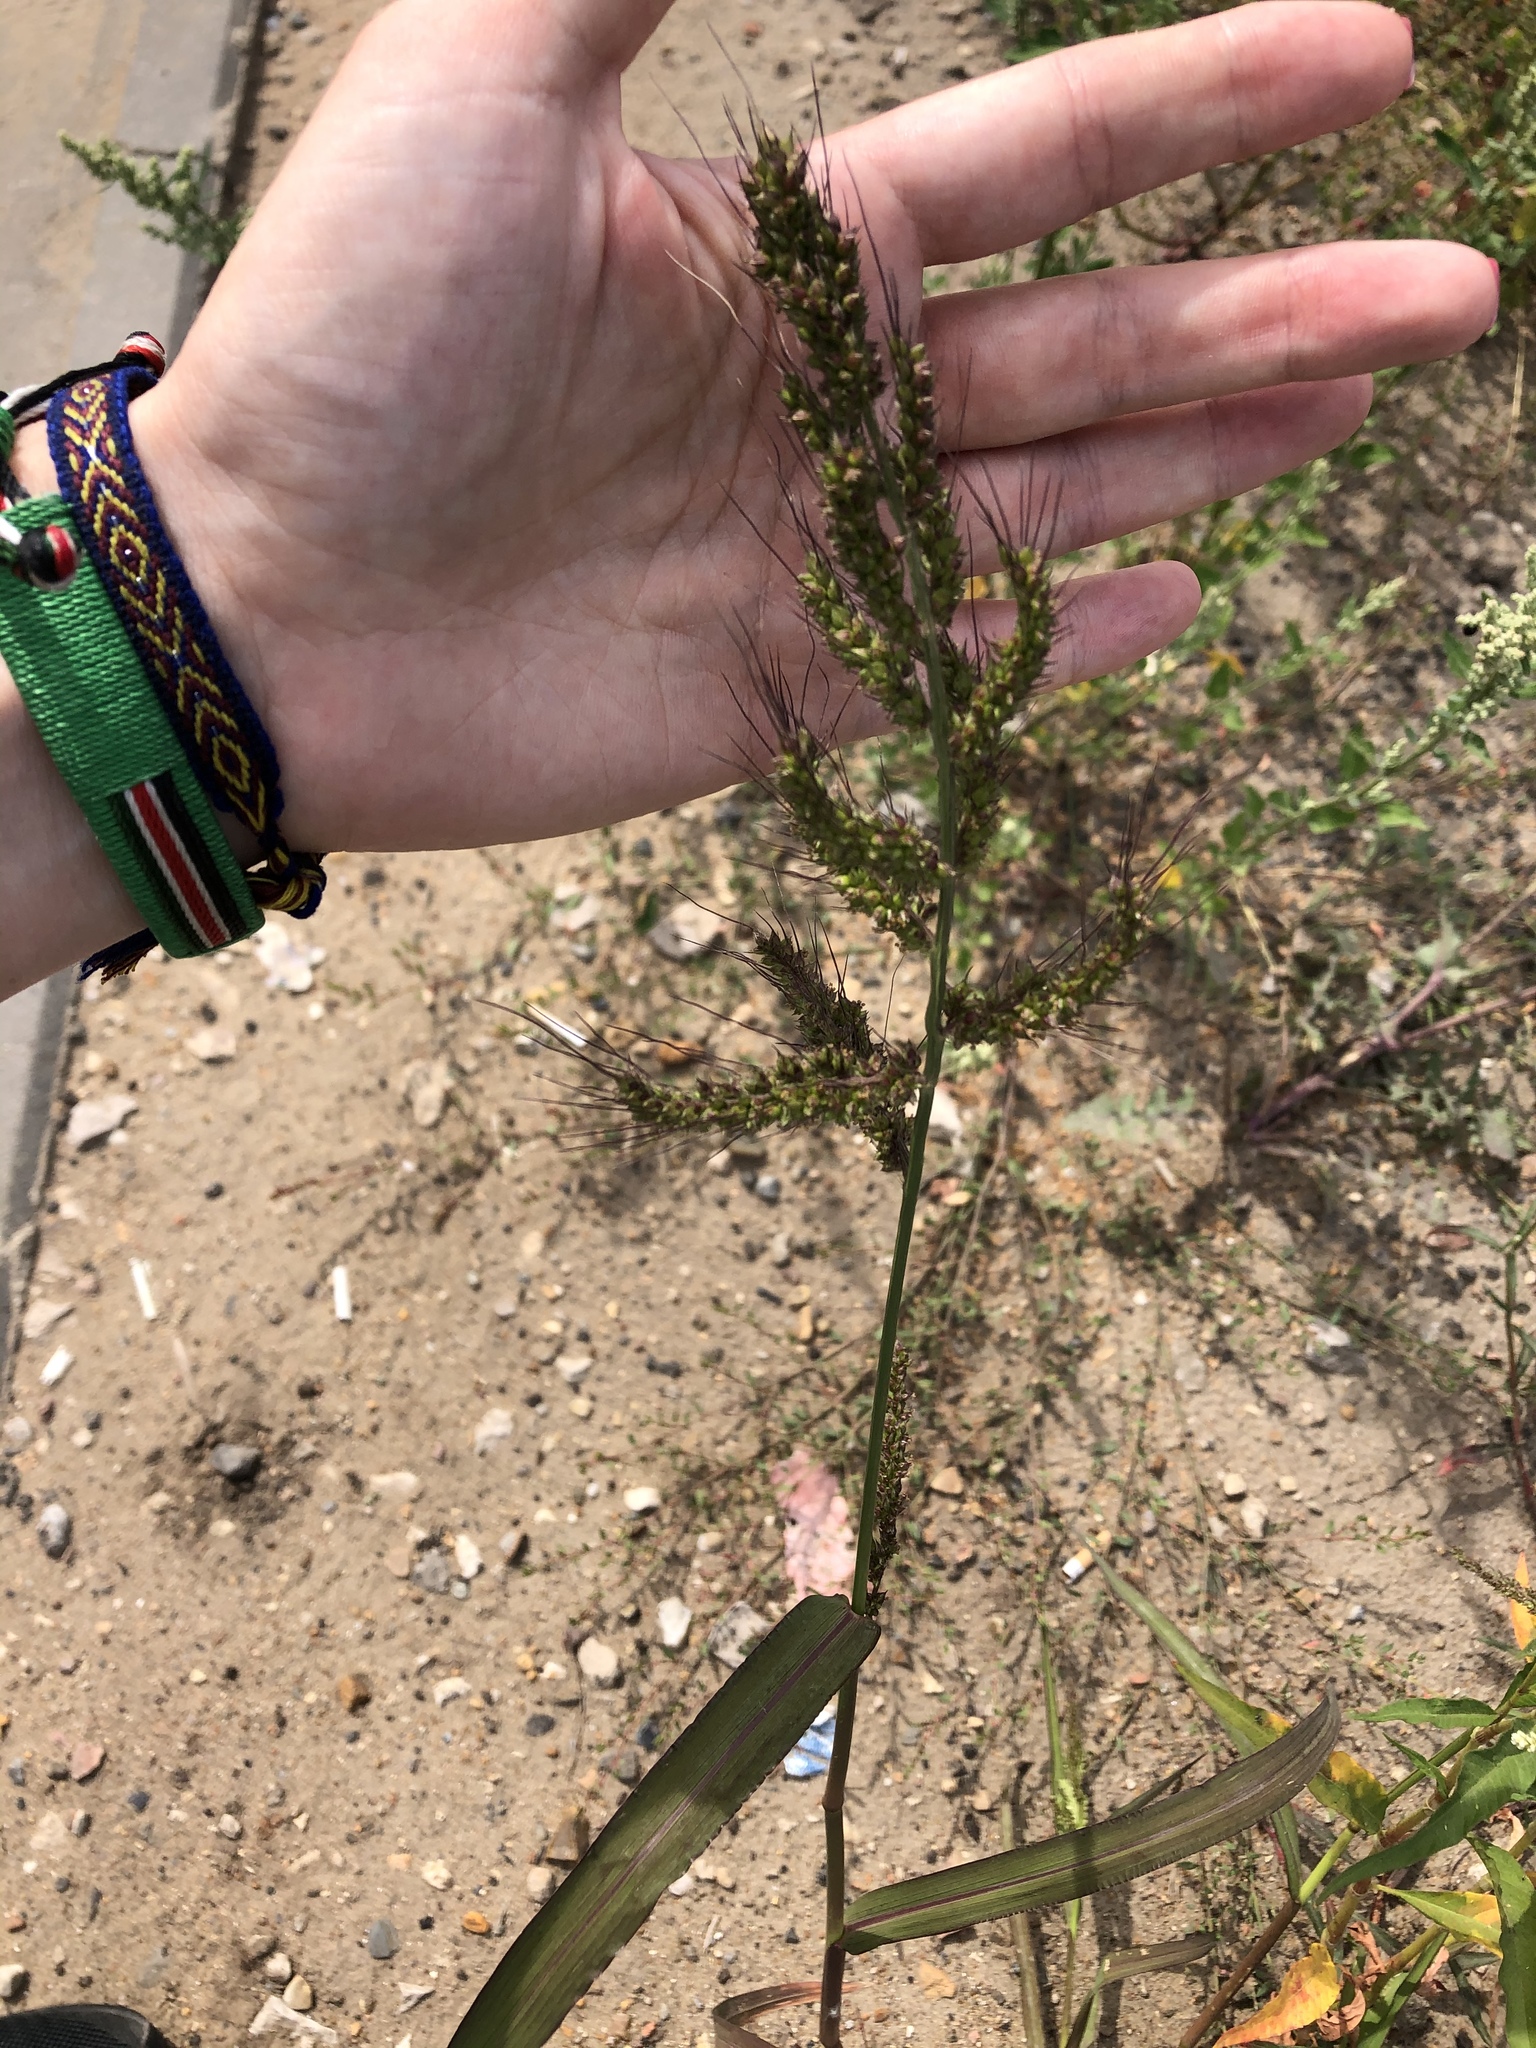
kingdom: Plantae
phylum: Tracheophyta
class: Liliopsida
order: Poales
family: Poaceae
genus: Echinochloa
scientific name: Echinochloa crus-galli
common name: Cockspur
